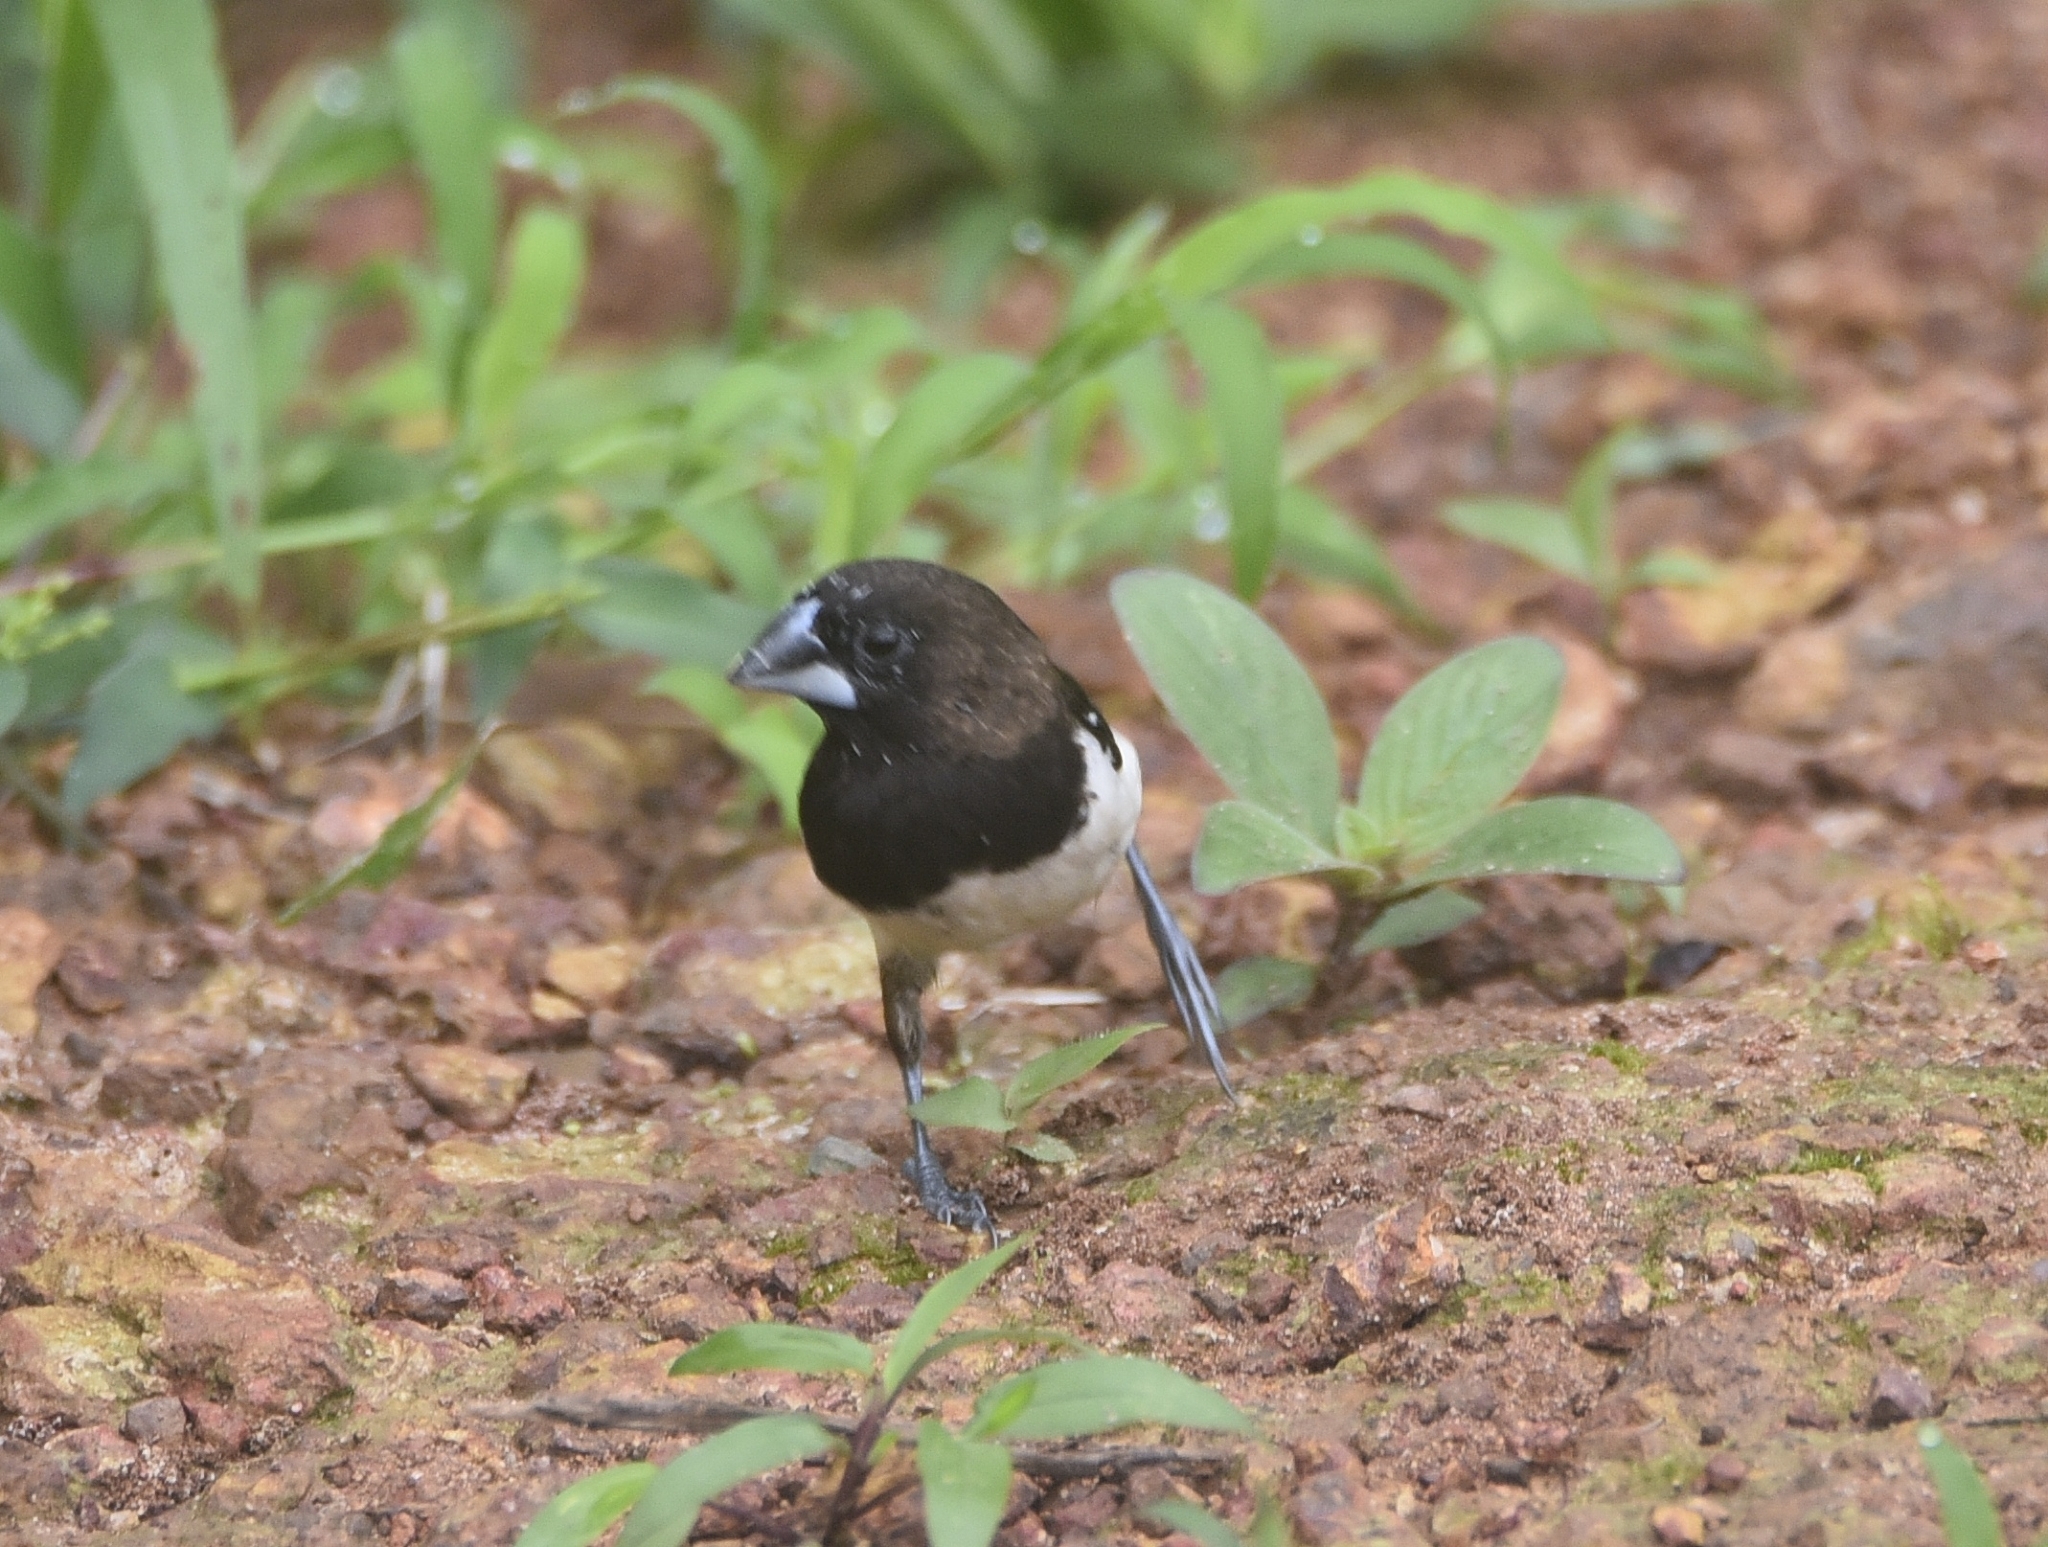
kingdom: Animalia
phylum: Chordata
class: Aves
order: Passeriformes
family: Estrildidae
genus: Lonchura
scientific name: Lonchura striata
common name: White-rumped munia
